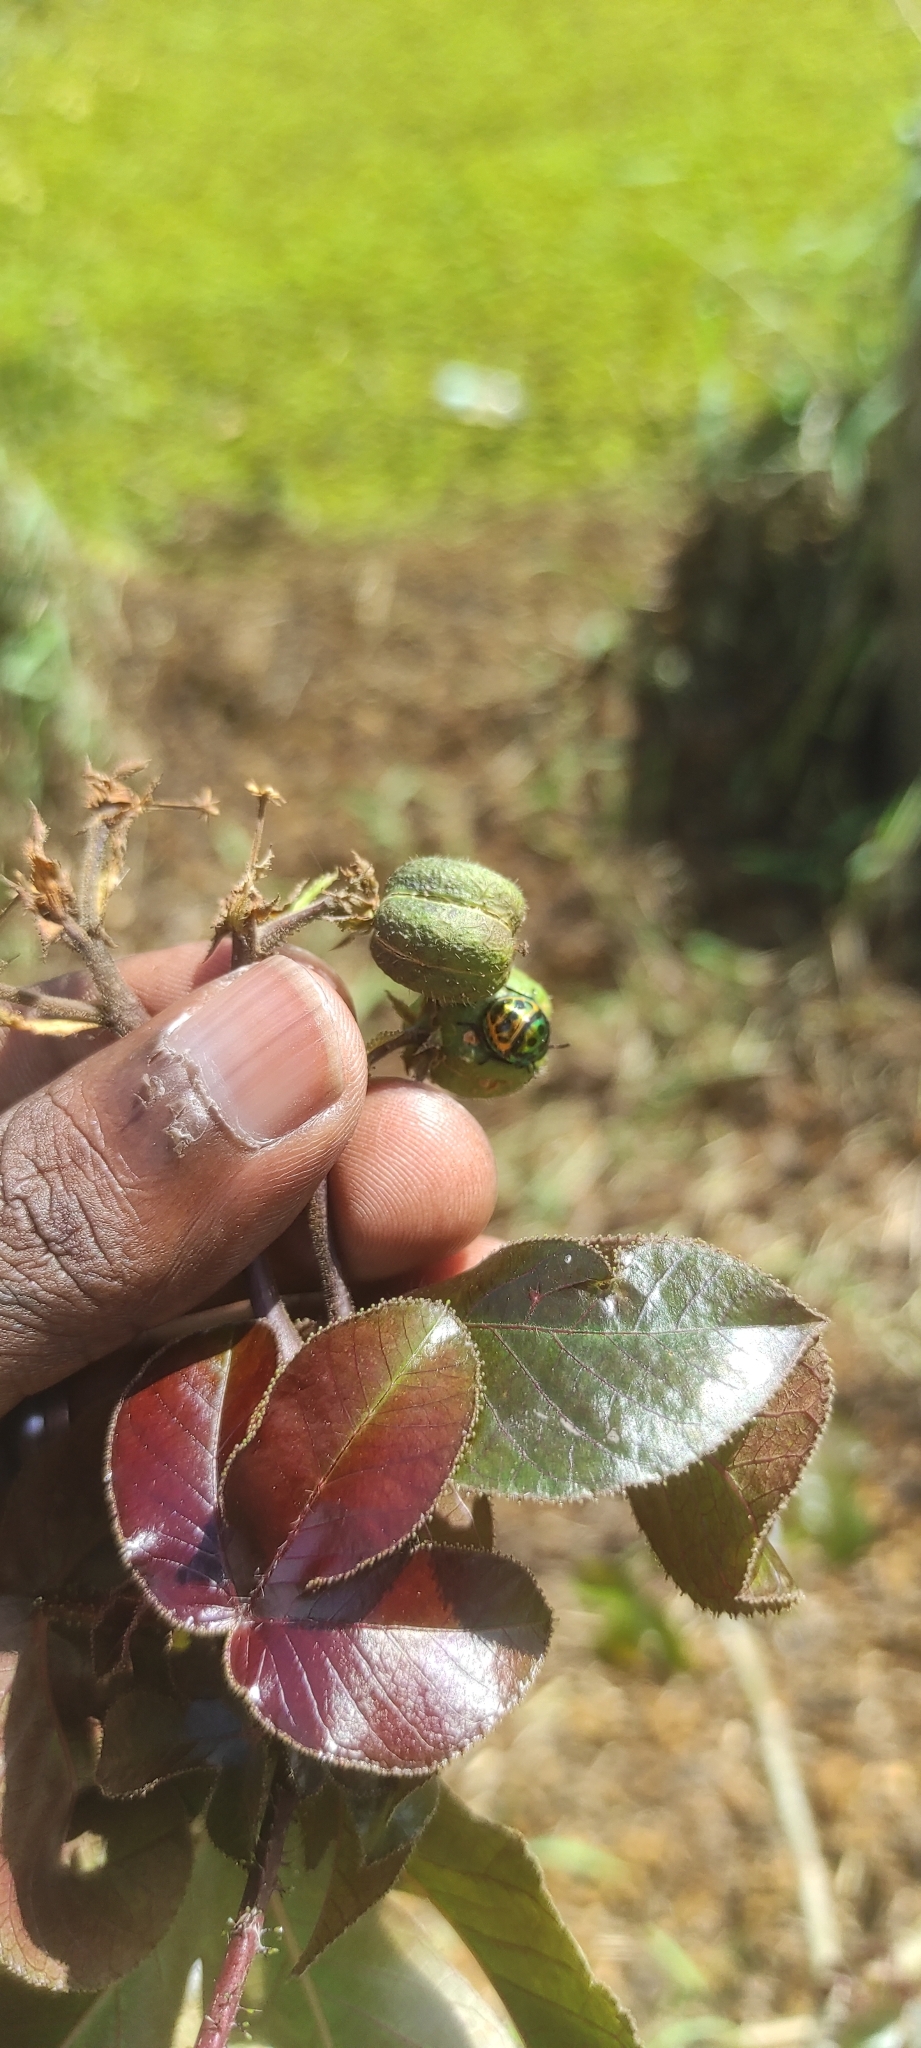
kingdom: Plantae
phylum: Tracheophyta
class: Magnoliopsida
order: Malpighiales
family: Euphorbiaceae
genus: Jatropha
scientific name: Jatropha gossypiifolia
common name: Bellyache bush
